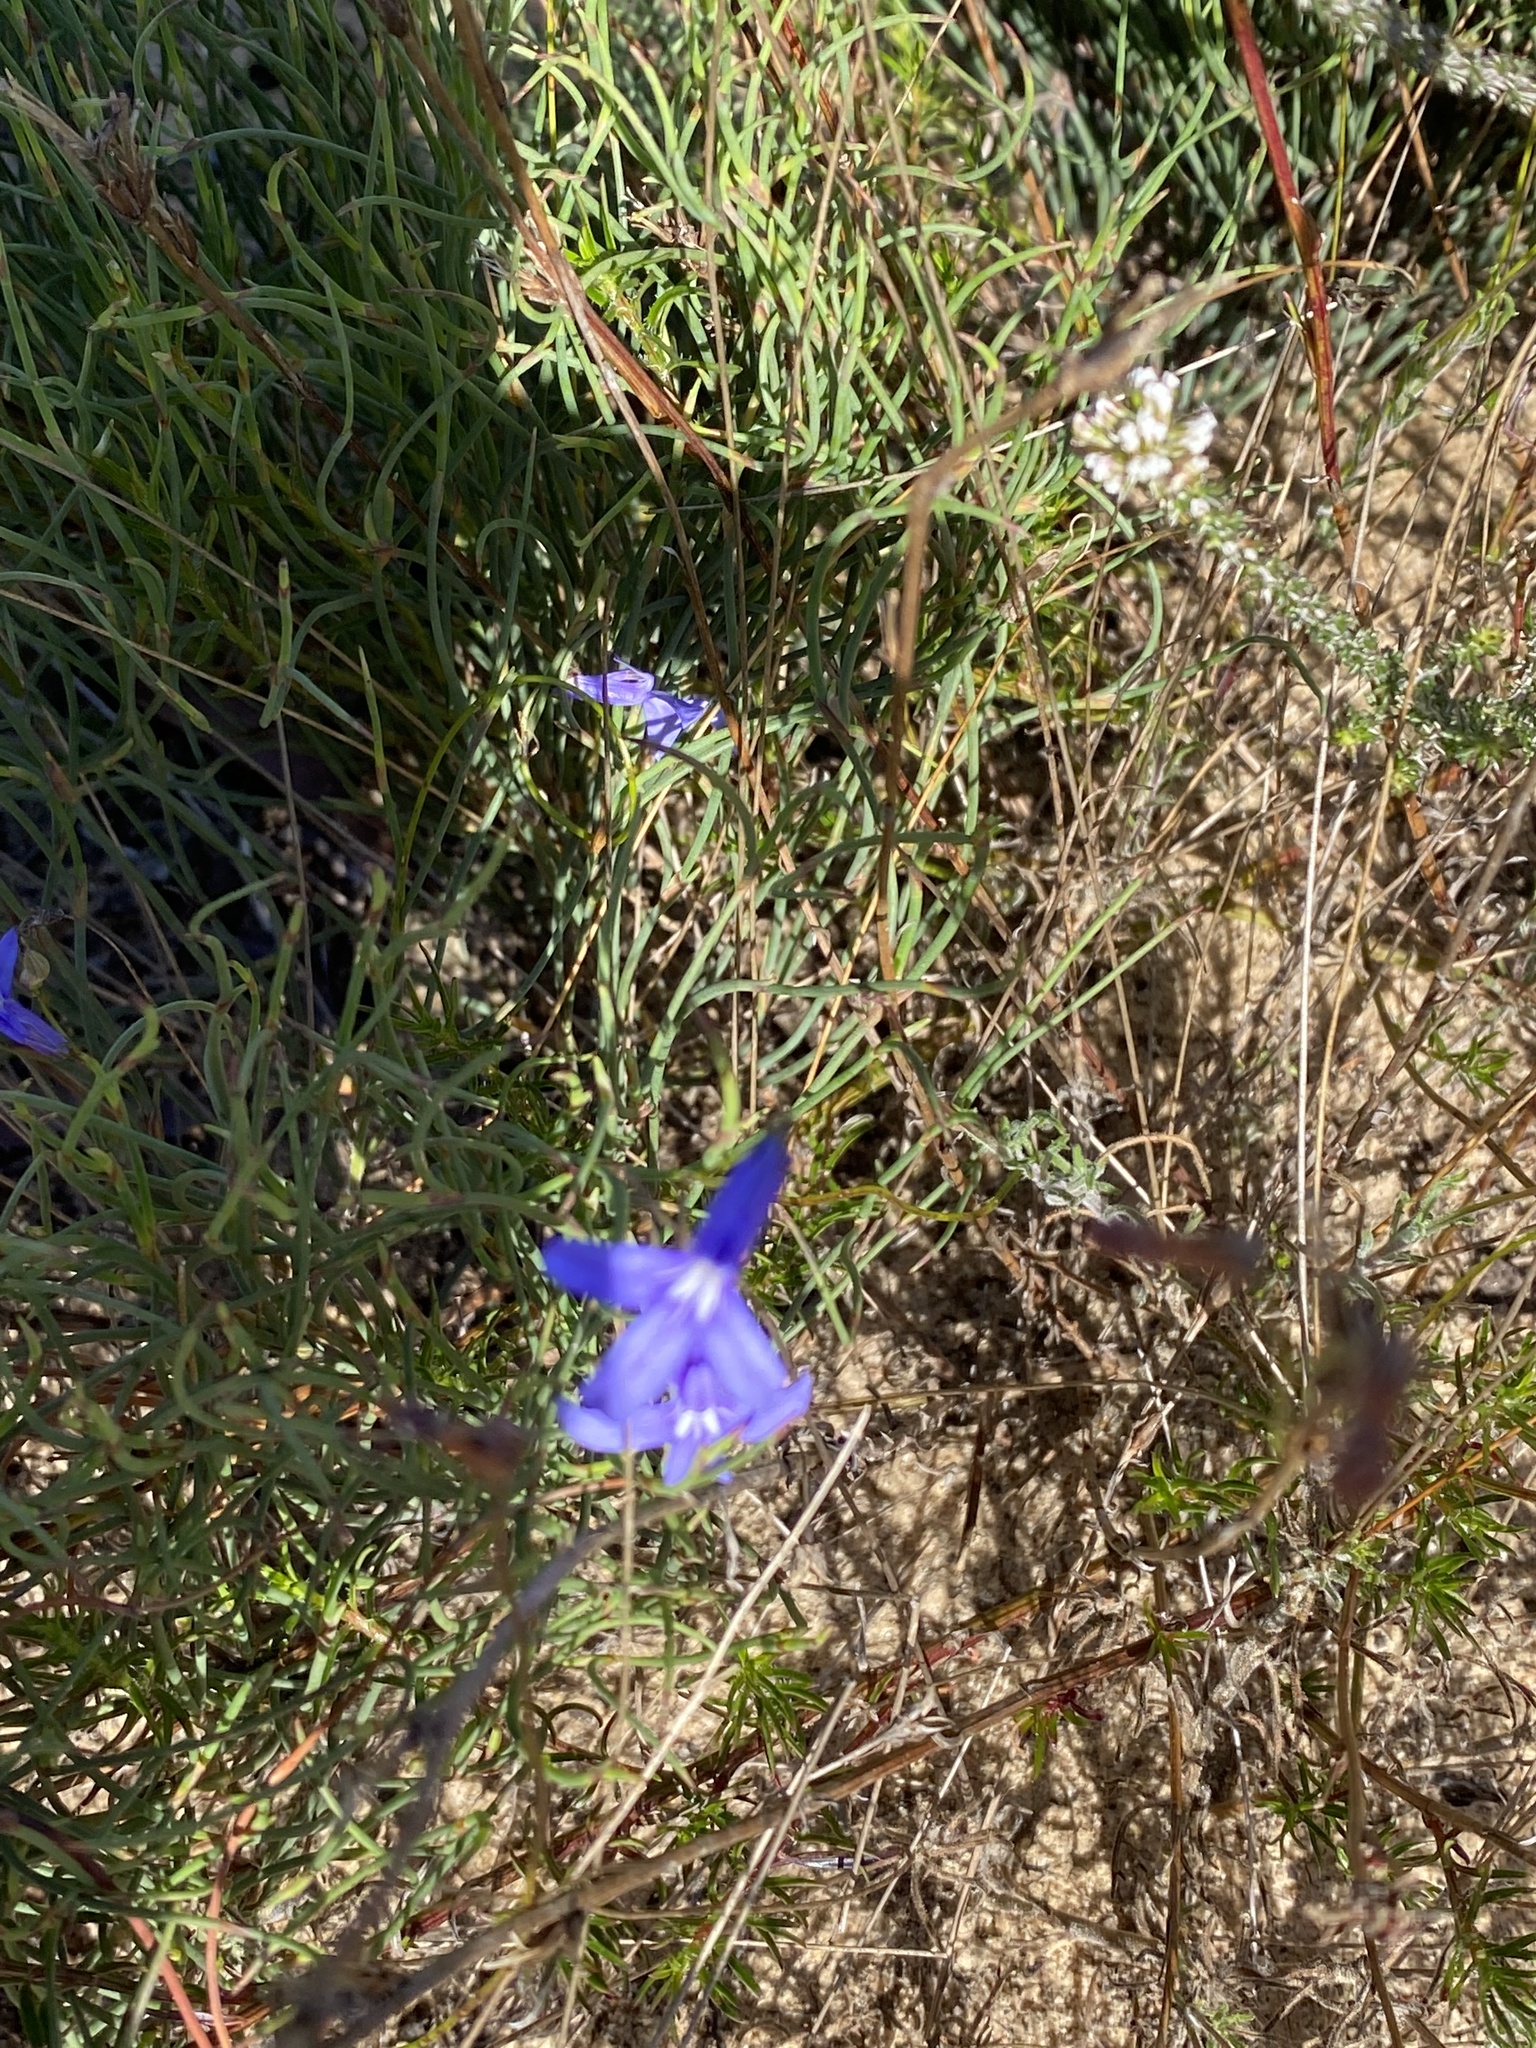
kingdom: Plantae
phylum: Tracheophyta
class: Magnoliopsida
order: Asterales
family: Campanulaceae
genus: Lobelia
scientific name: Lobelia tomentosa
